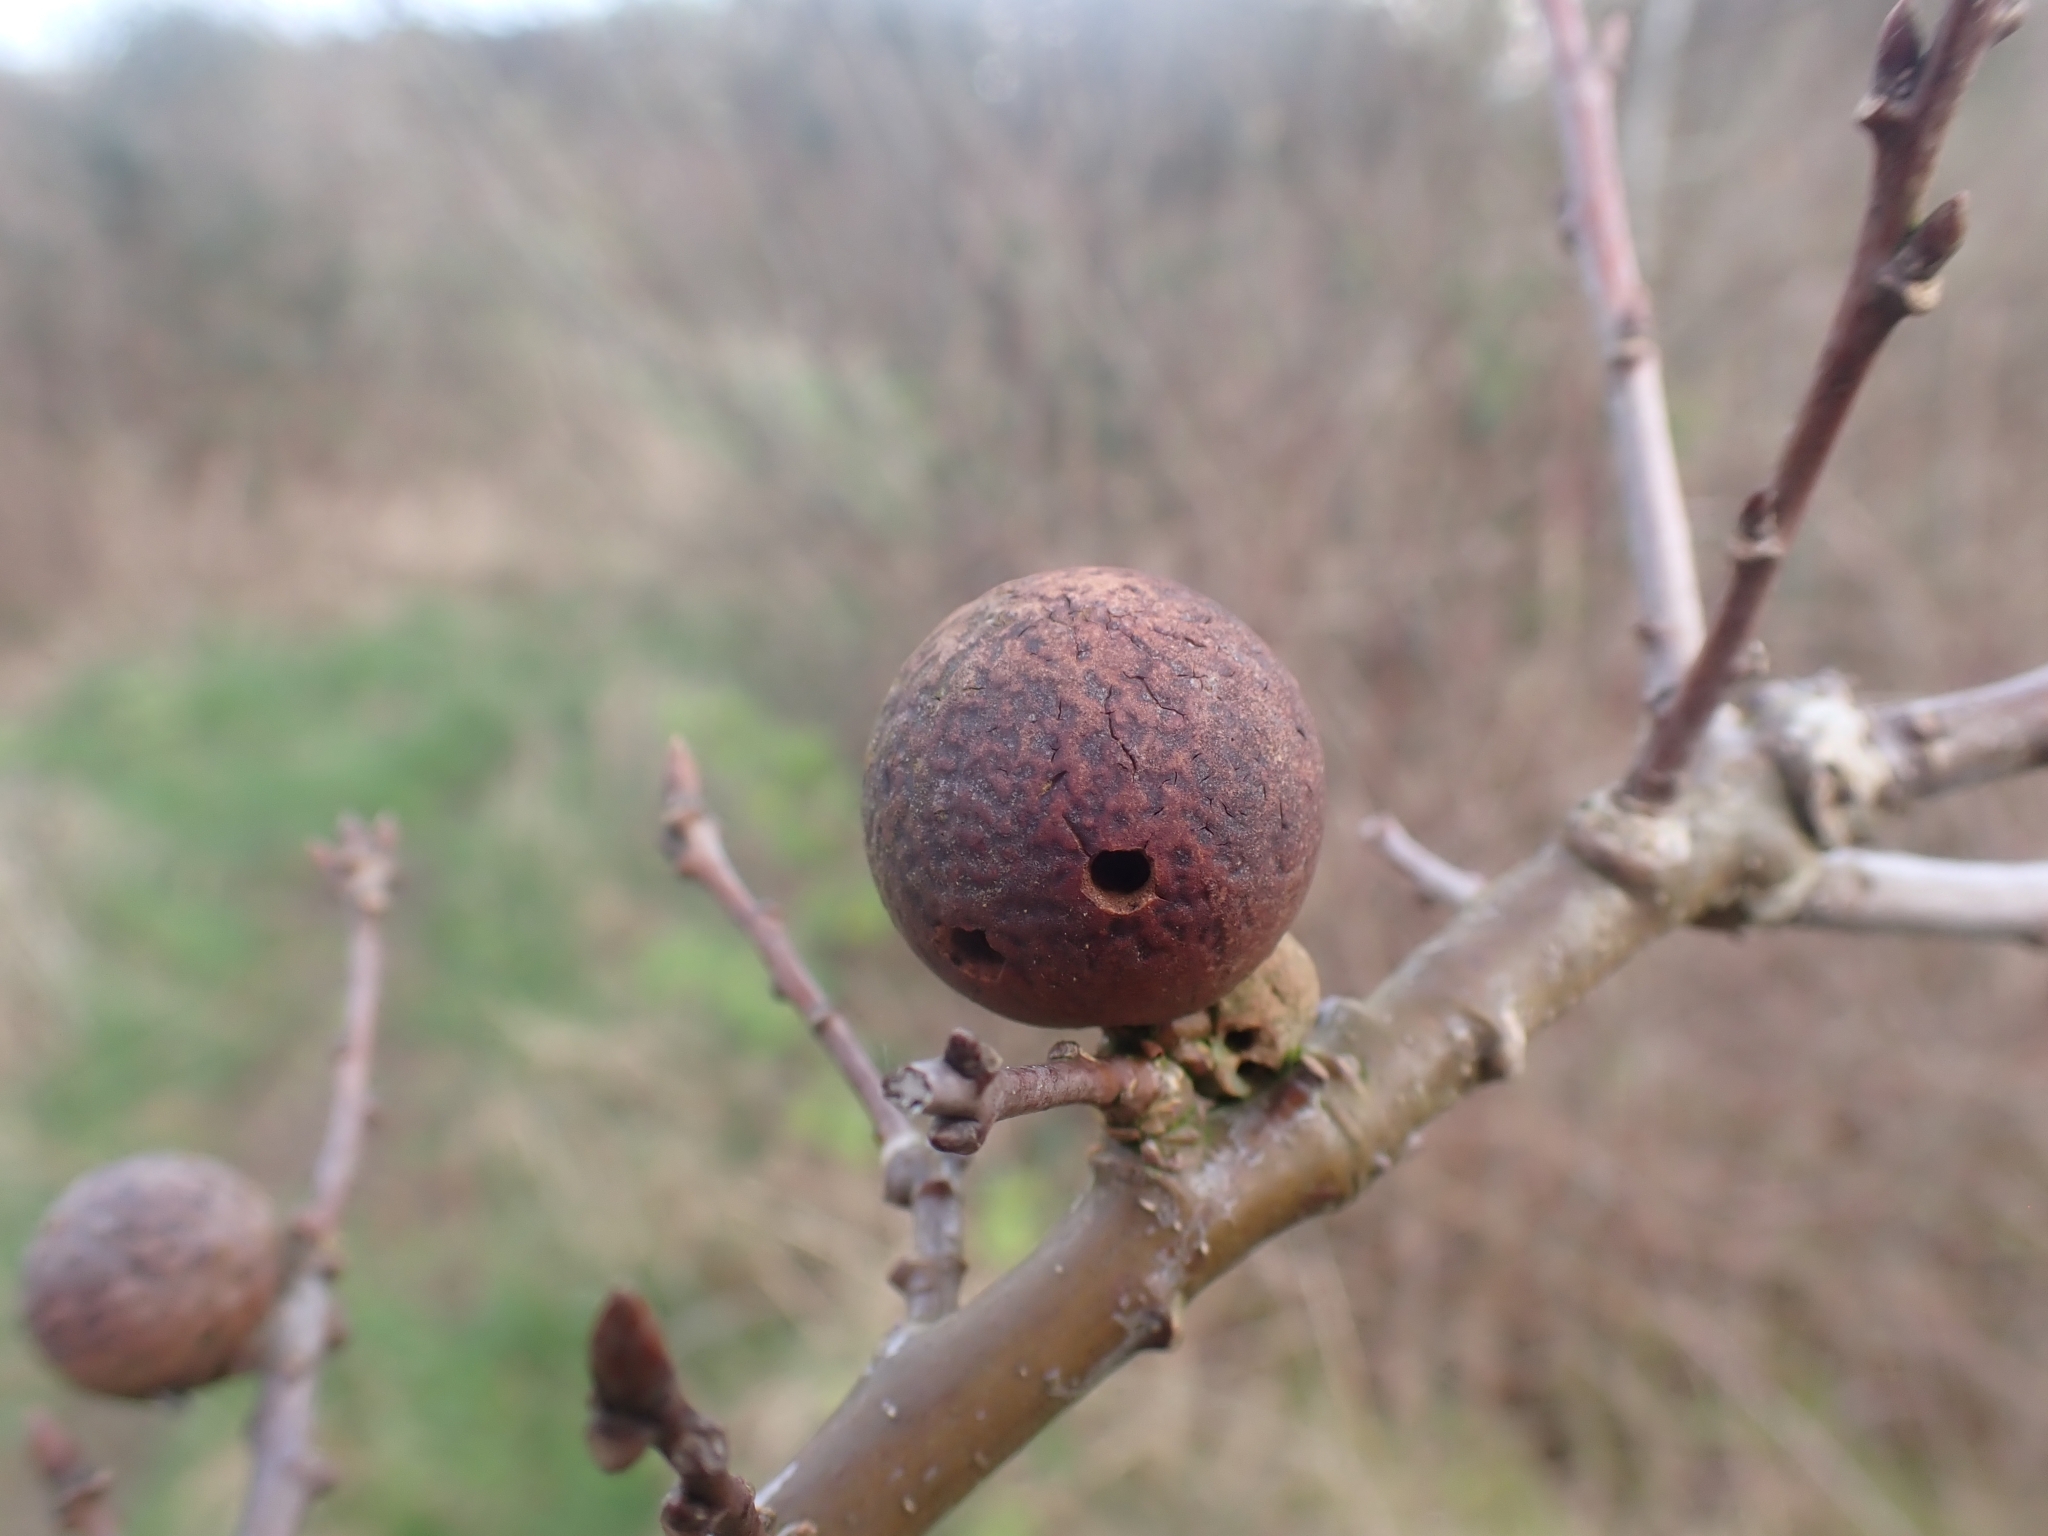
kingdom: Animalia
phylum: Arthropoda
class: Insecta
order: Hymenoptera
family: Cynipidae
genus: Andricus
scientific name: Andricus kollari
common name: Marble gall
